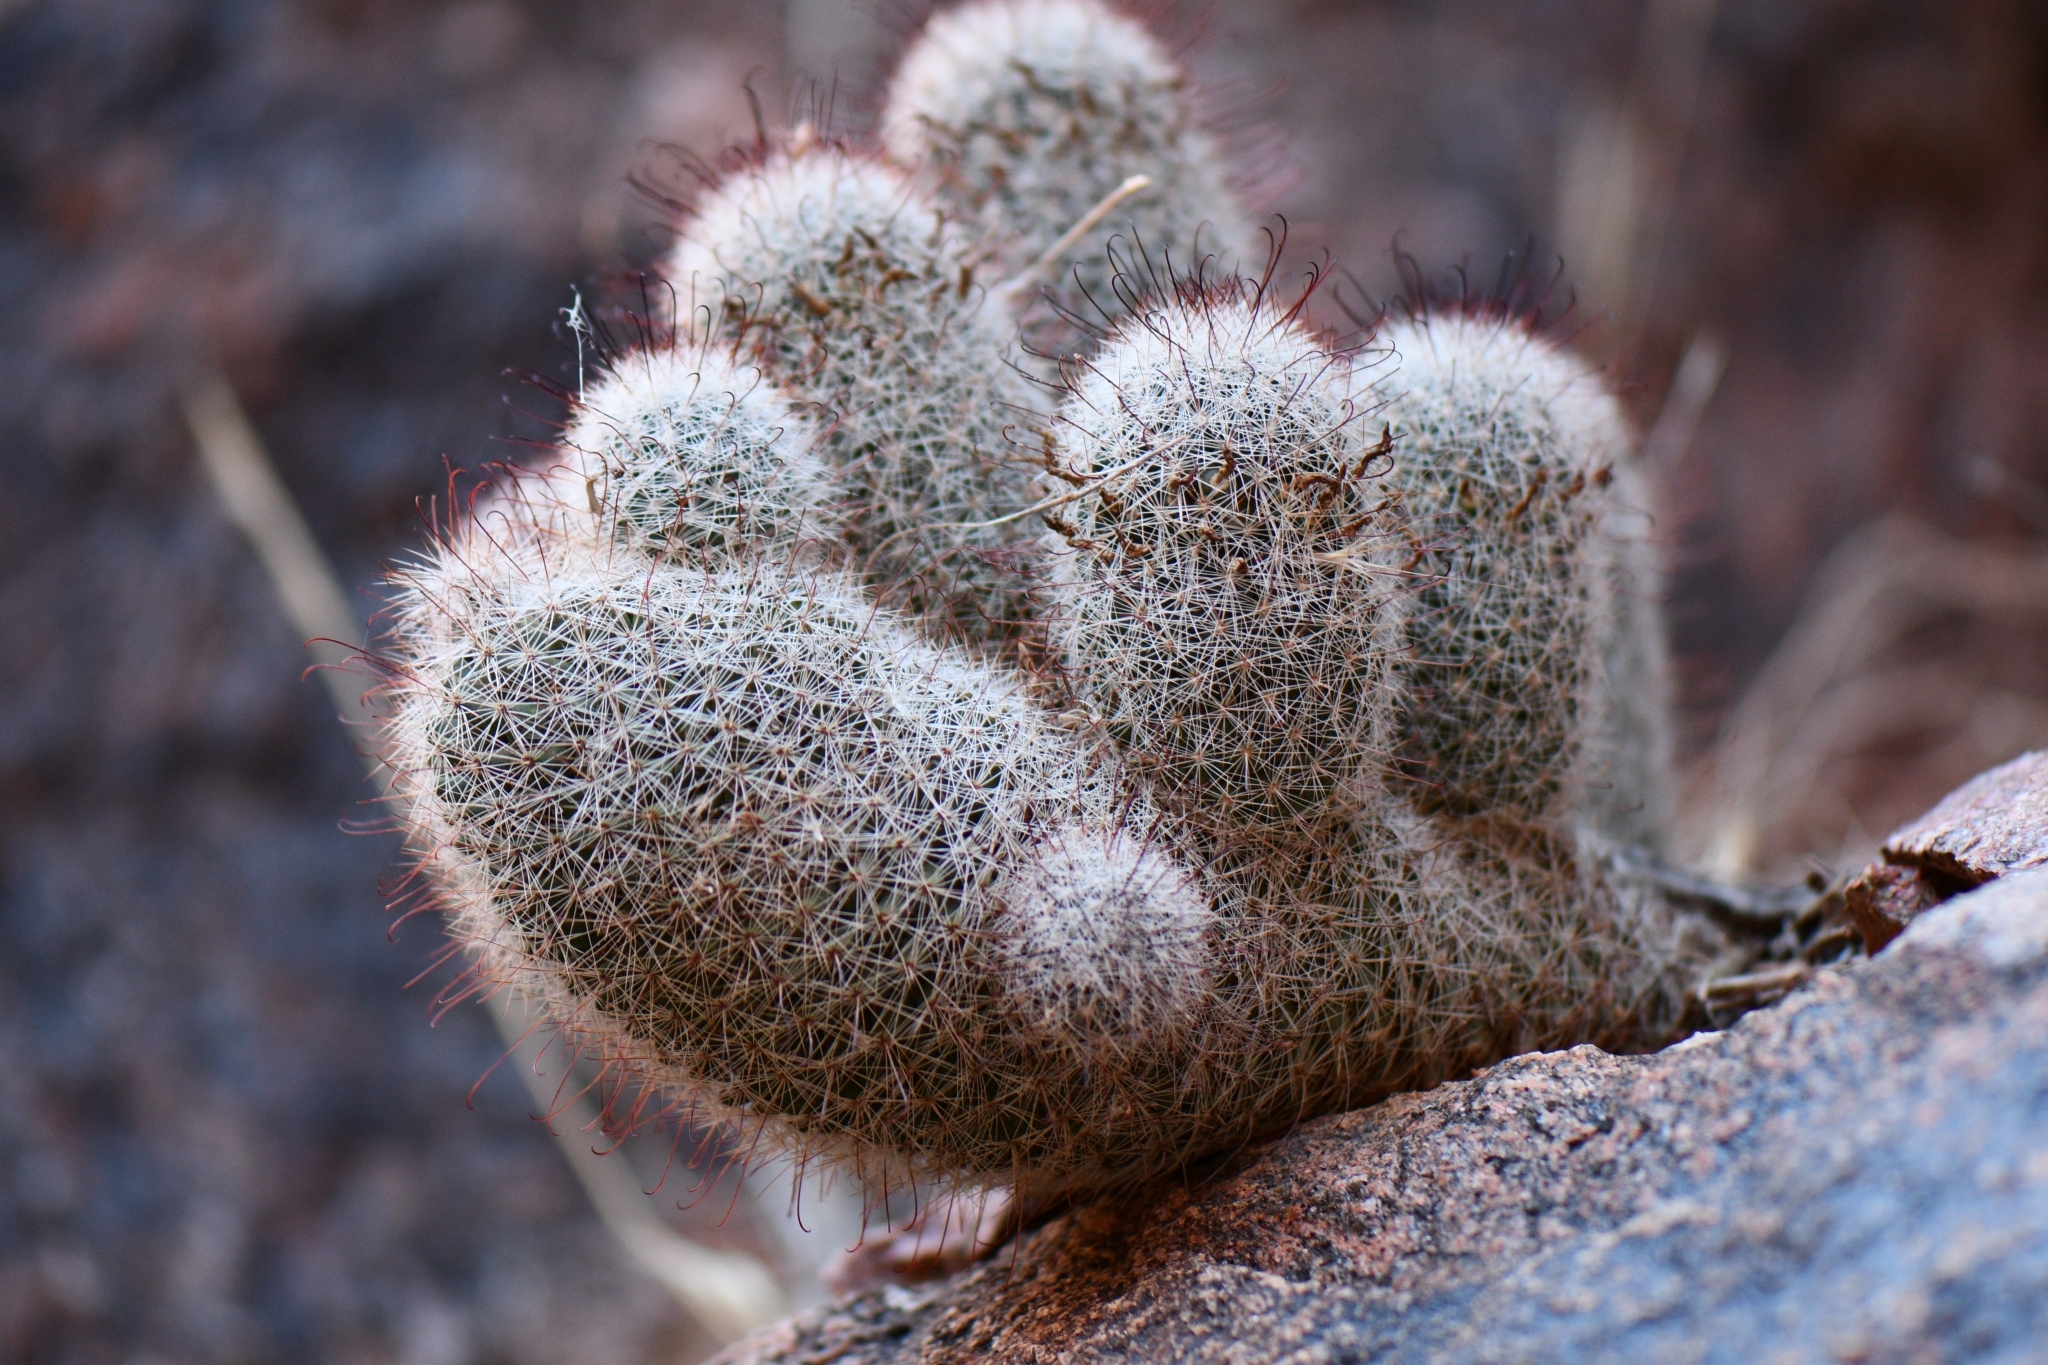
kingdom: Plantae
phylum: Tracheophyta
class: Magnoliopsida
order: Caryophyllales
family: Cactaceae
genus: Cochemiea
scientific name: Cochemiea grahamii
